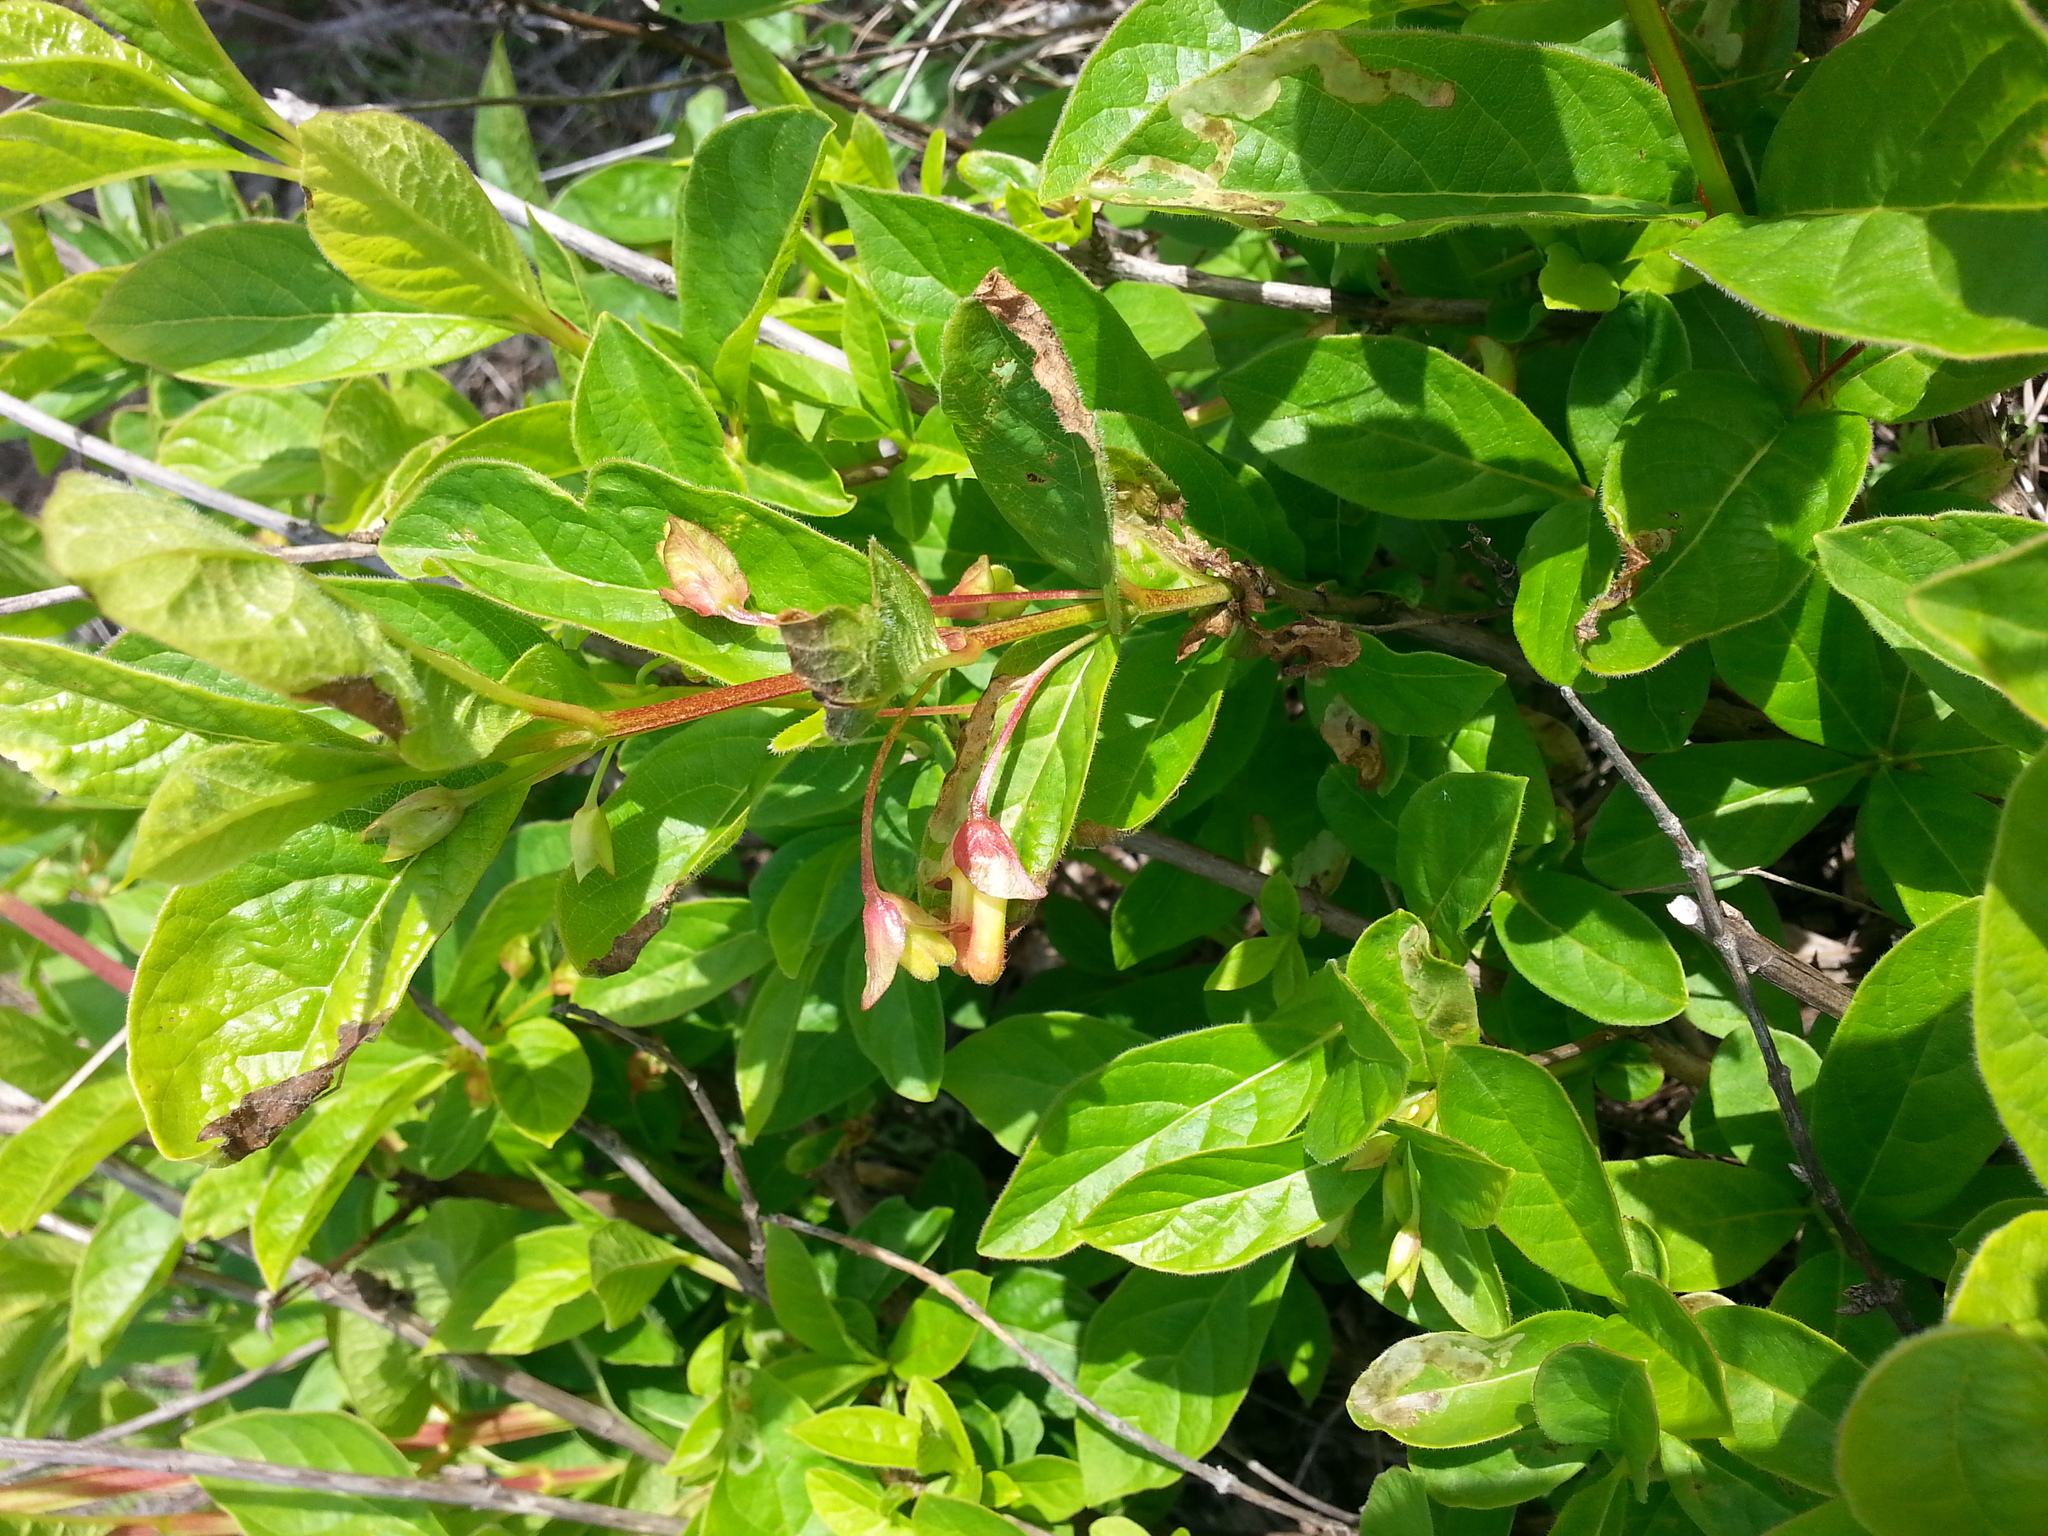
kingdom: Plantae
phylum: Tracheophyta
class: Magnoliopsida
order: Dipsacales
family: Caprifoliaceae
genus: Lonicera
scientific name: Lonicera involucrata
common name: Californian honeysuckle
